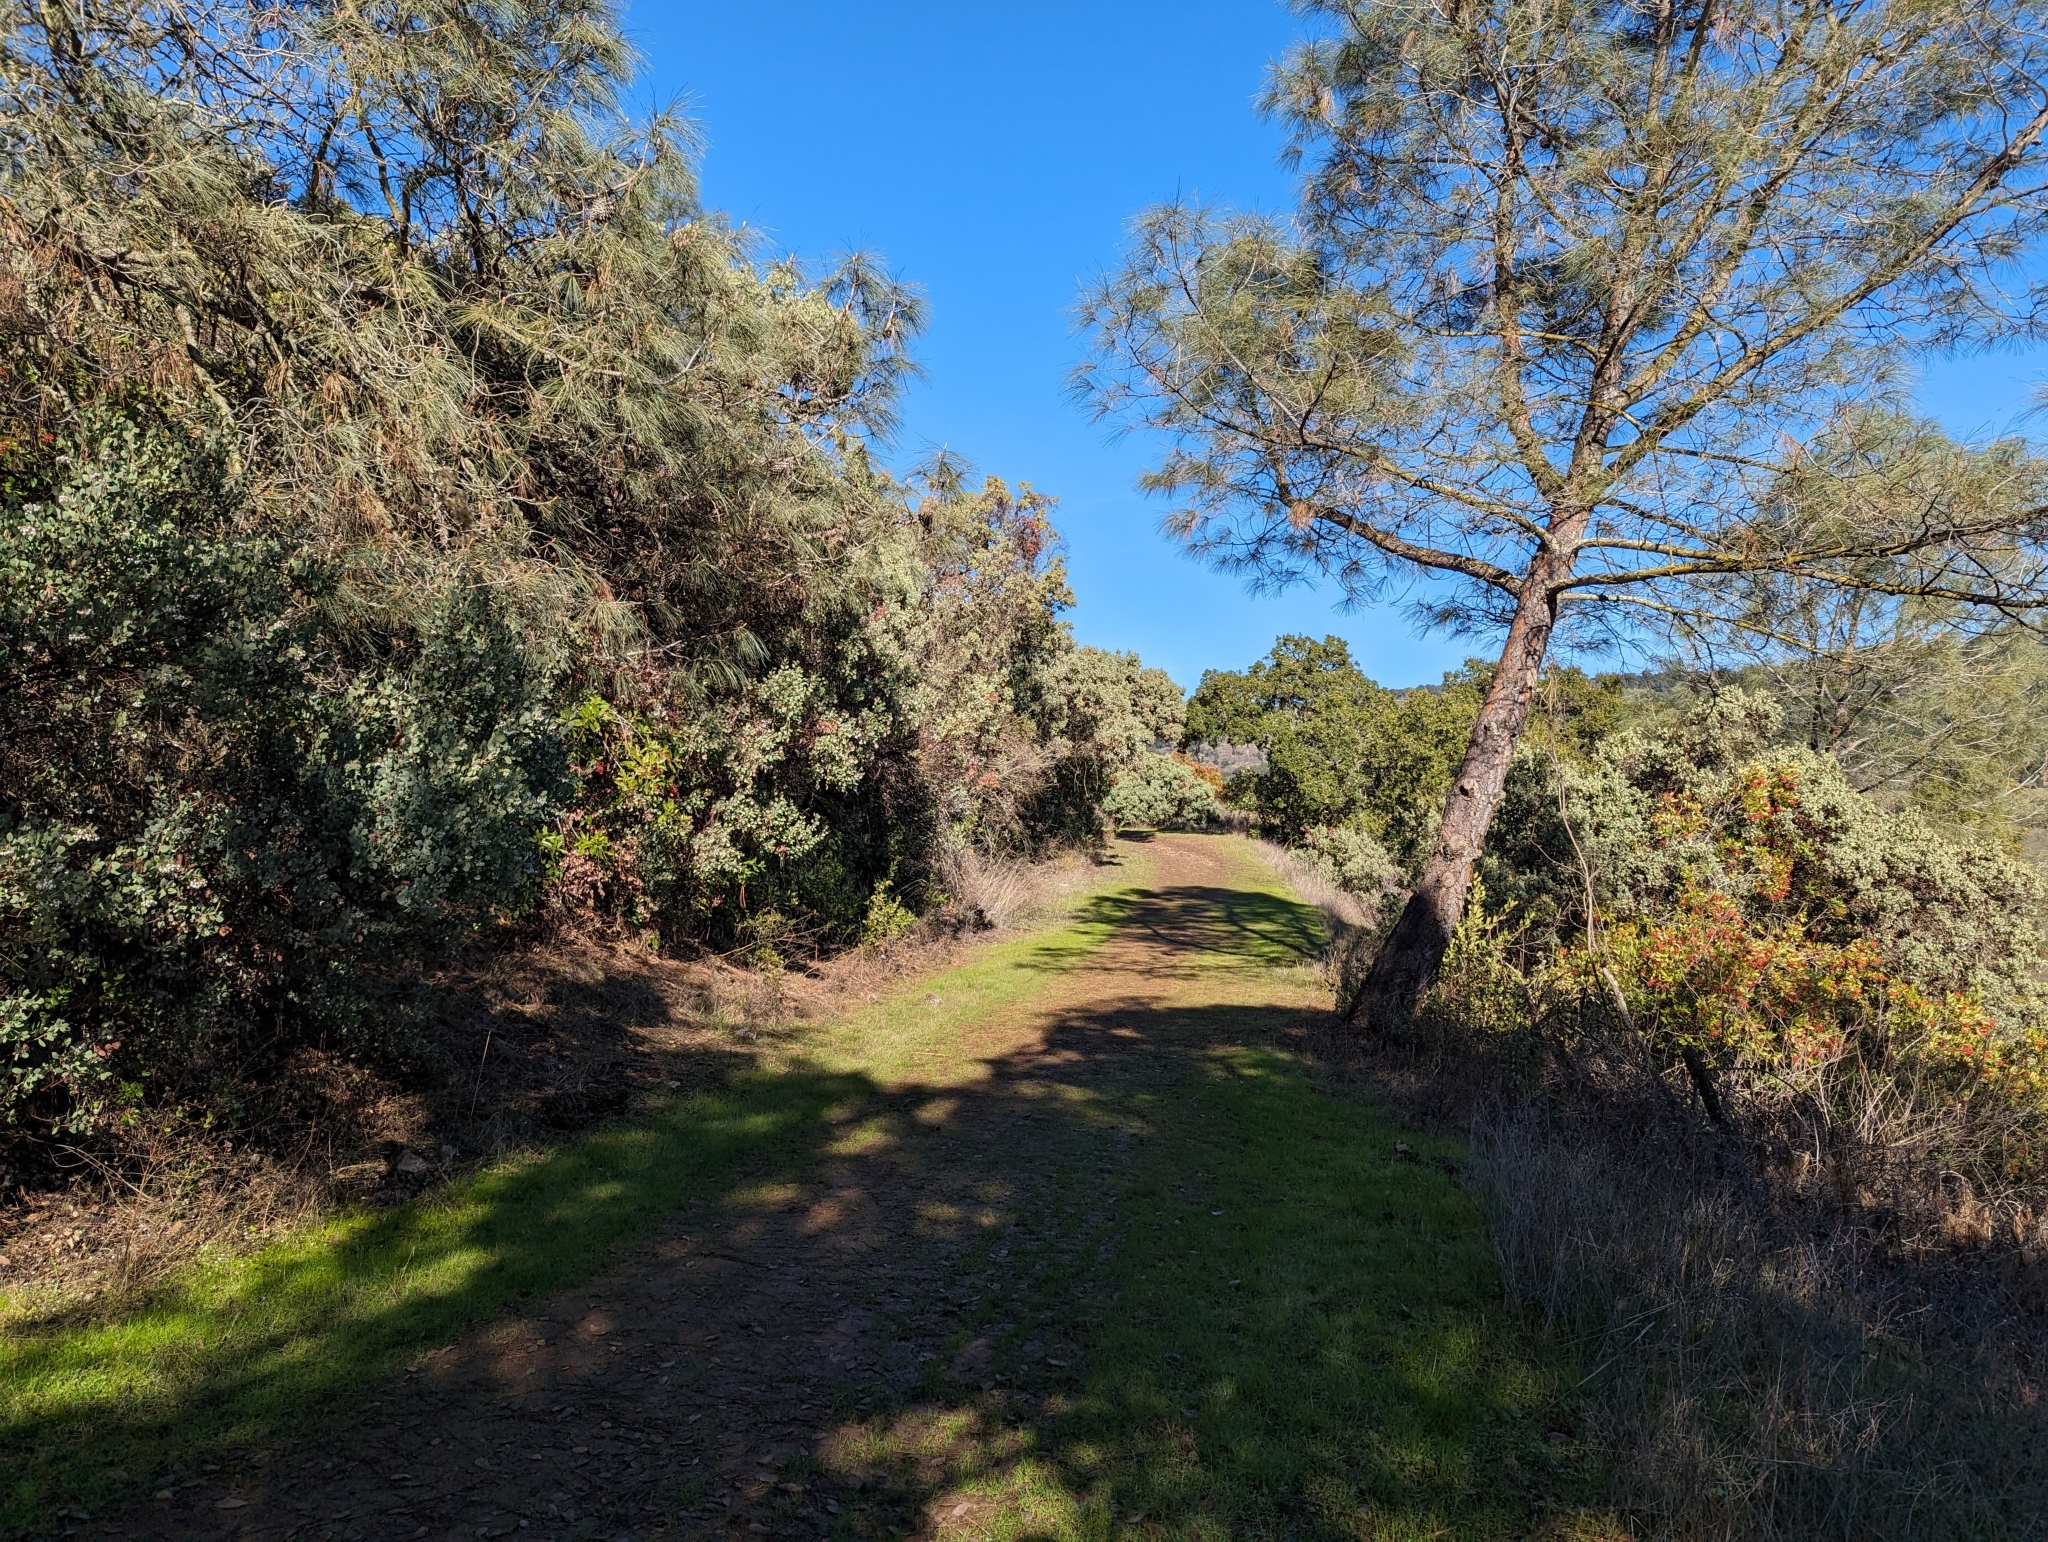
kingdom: Plantae
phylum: Tracheophyta
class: Magnoliopsida
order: Ericales
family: Ericaceae
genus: Arctostaphylos
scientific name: Arctostaphylos glauca
